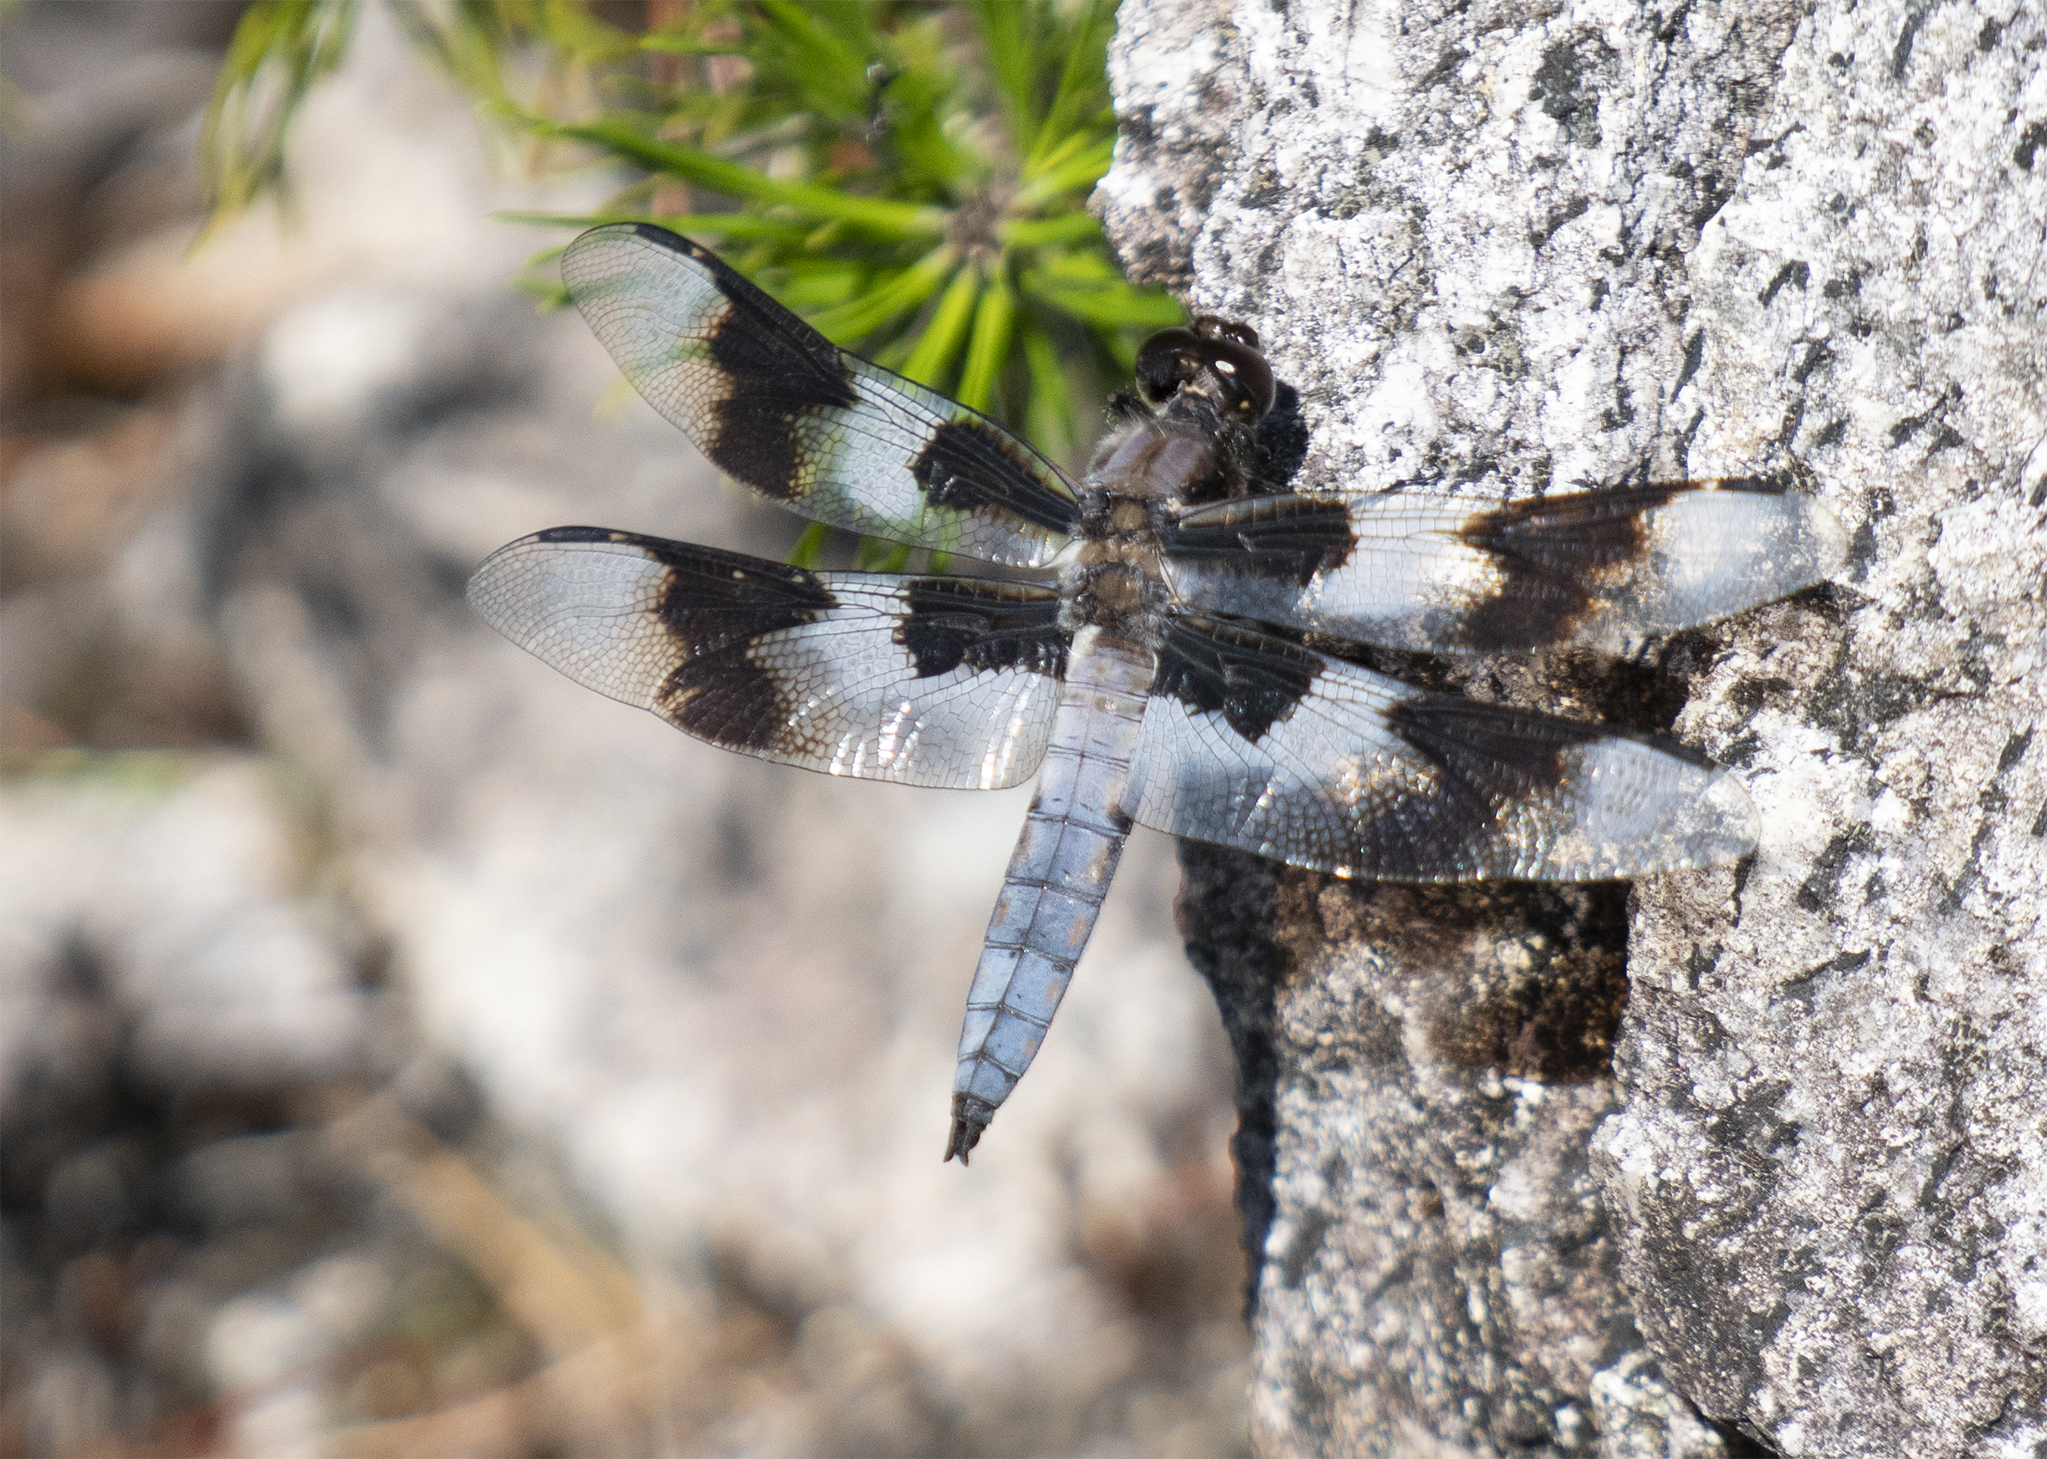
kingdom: Animalia
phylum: Arthropoda
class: Insecta
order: Odonata
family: Libellulidae
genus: Libellula
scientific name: Libellula forensis
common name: Eight-spotted skimmer
